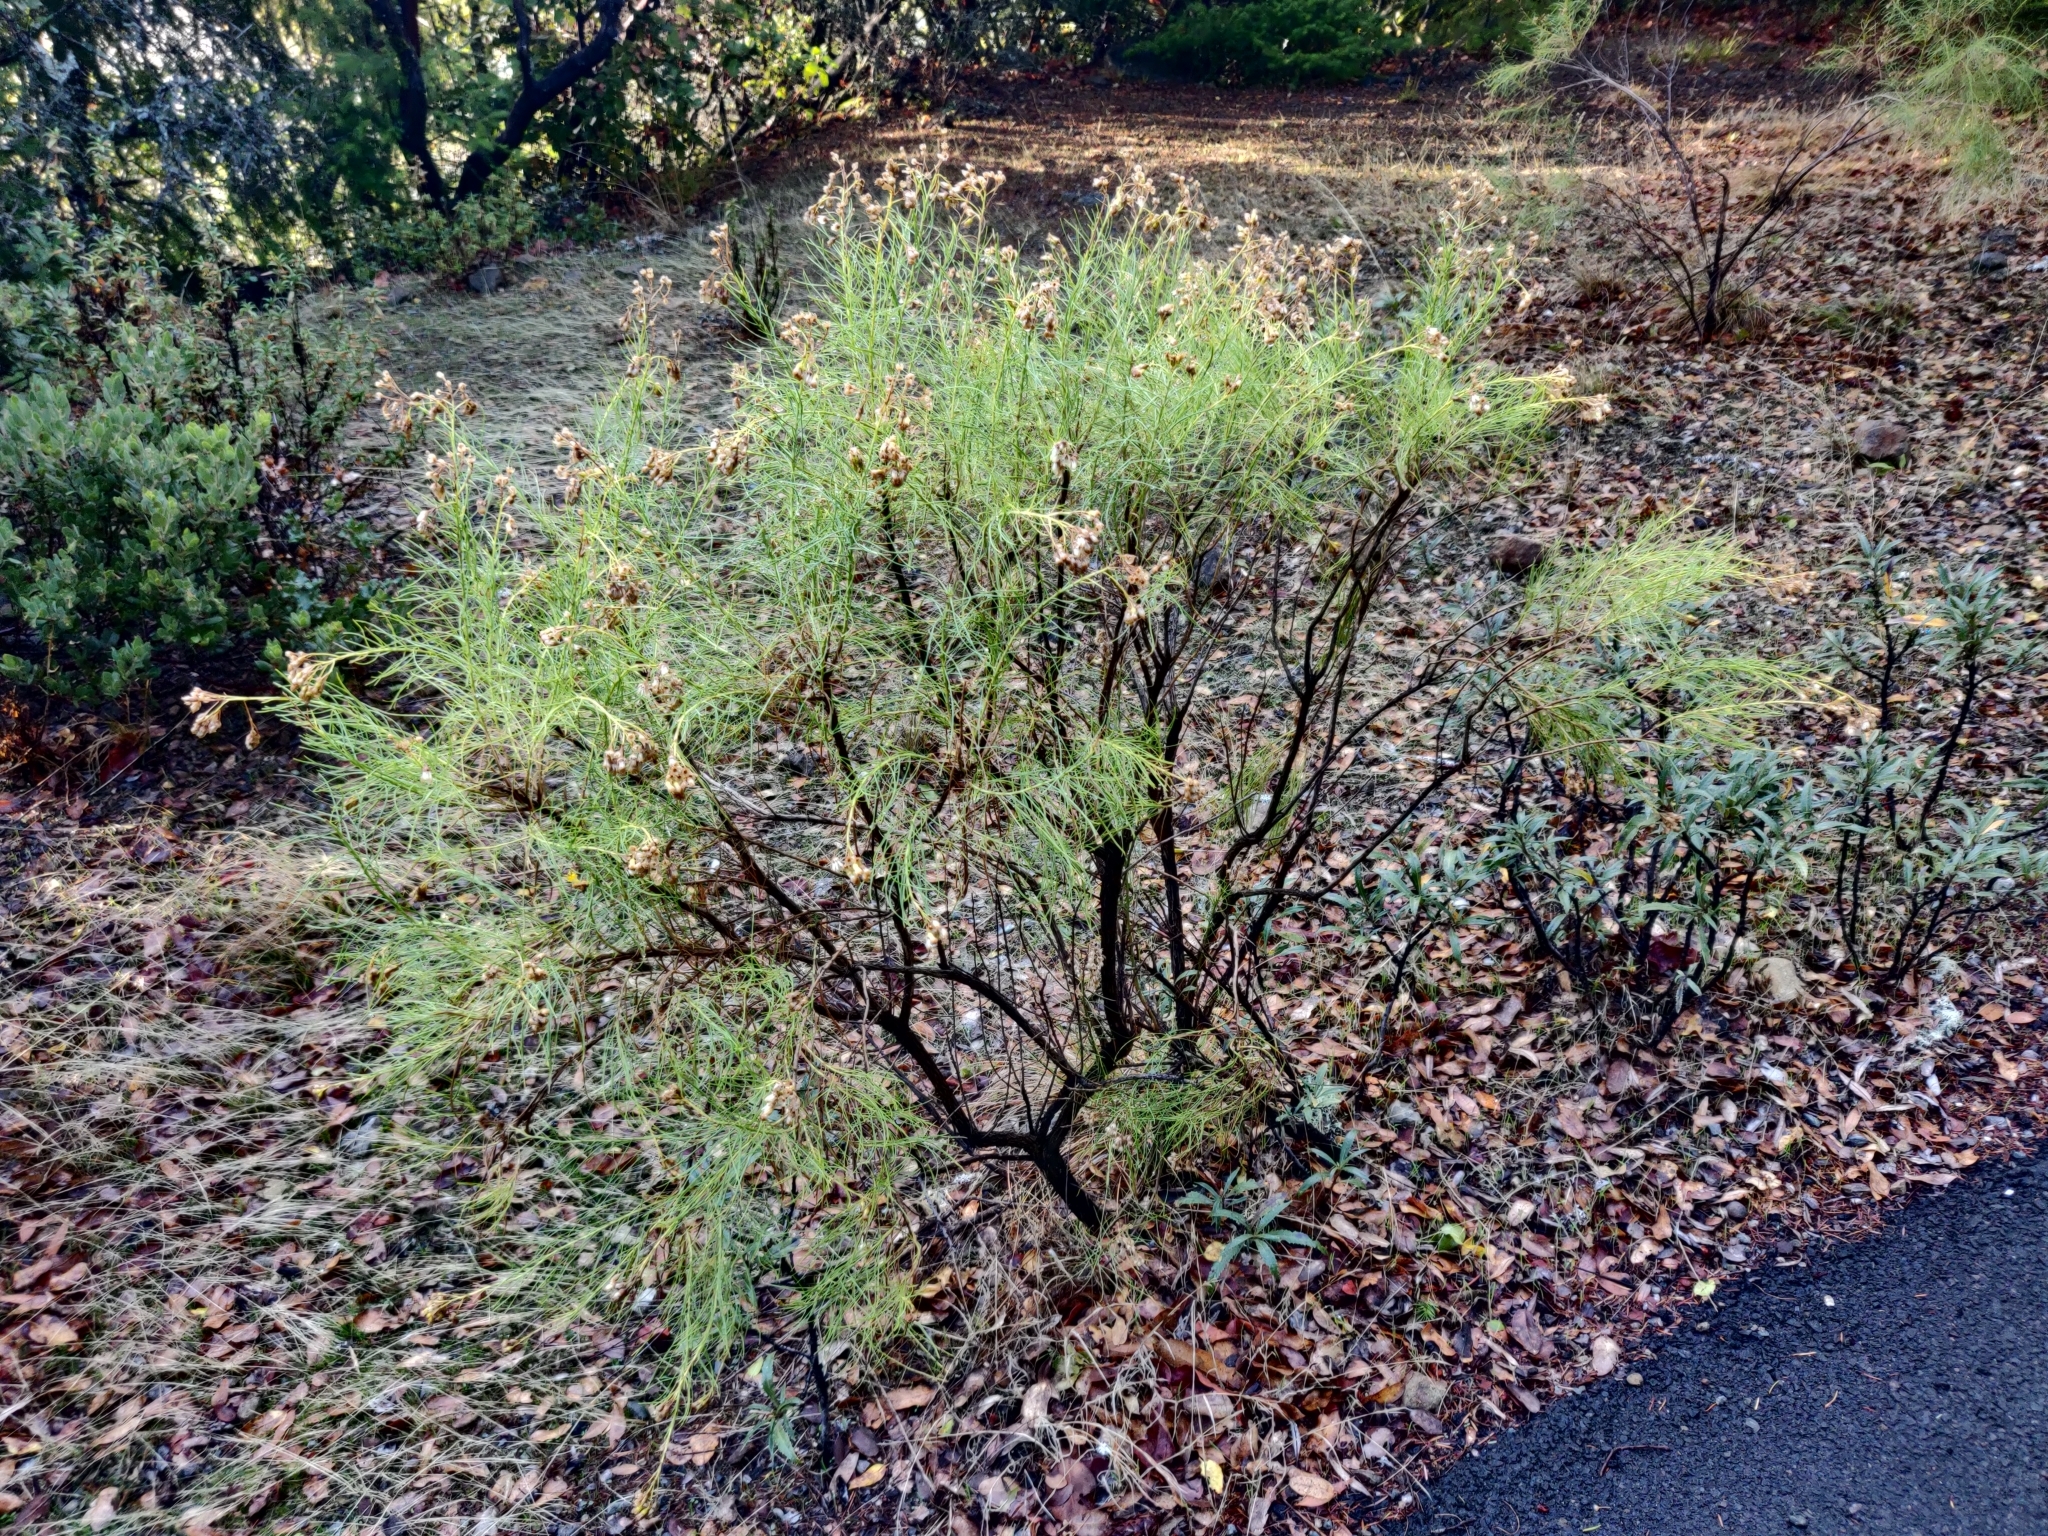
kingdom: Plantae
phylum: Tracheophyta
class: Magnoliopsida
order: Asterales
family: Asteraceae
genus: Ericameria
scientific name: Ericameria arborescens
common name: Goldenfleece
